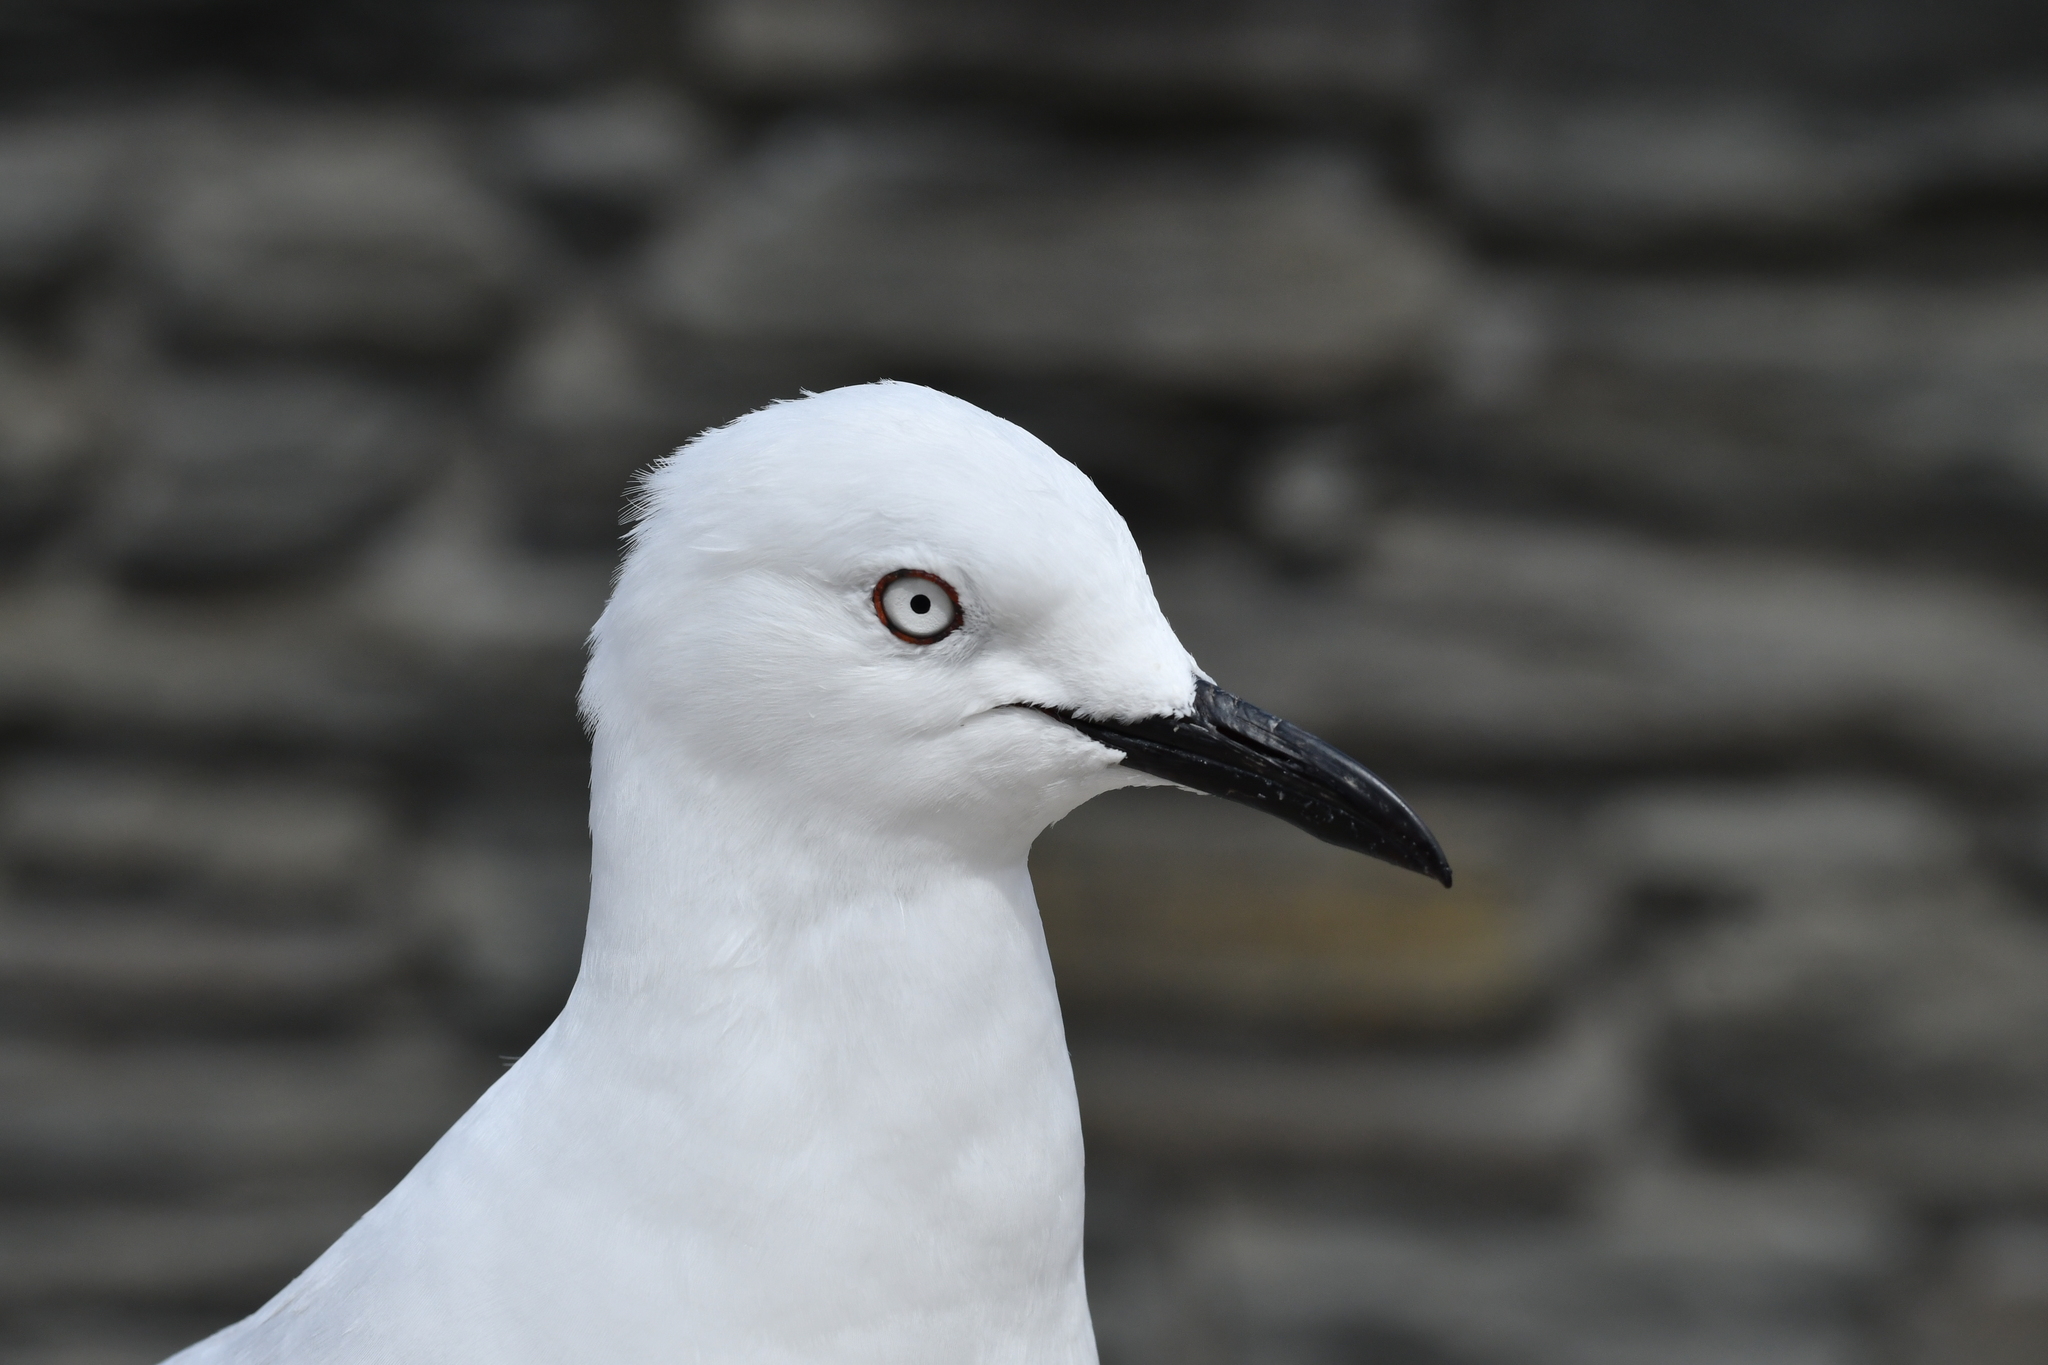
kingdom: Animalia
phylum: Chordata
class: Aves
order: Charadriiformes
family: Laridae
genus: Chroicocephalus
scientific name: Chroicocephalus bulleri
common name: Black-billed gull
